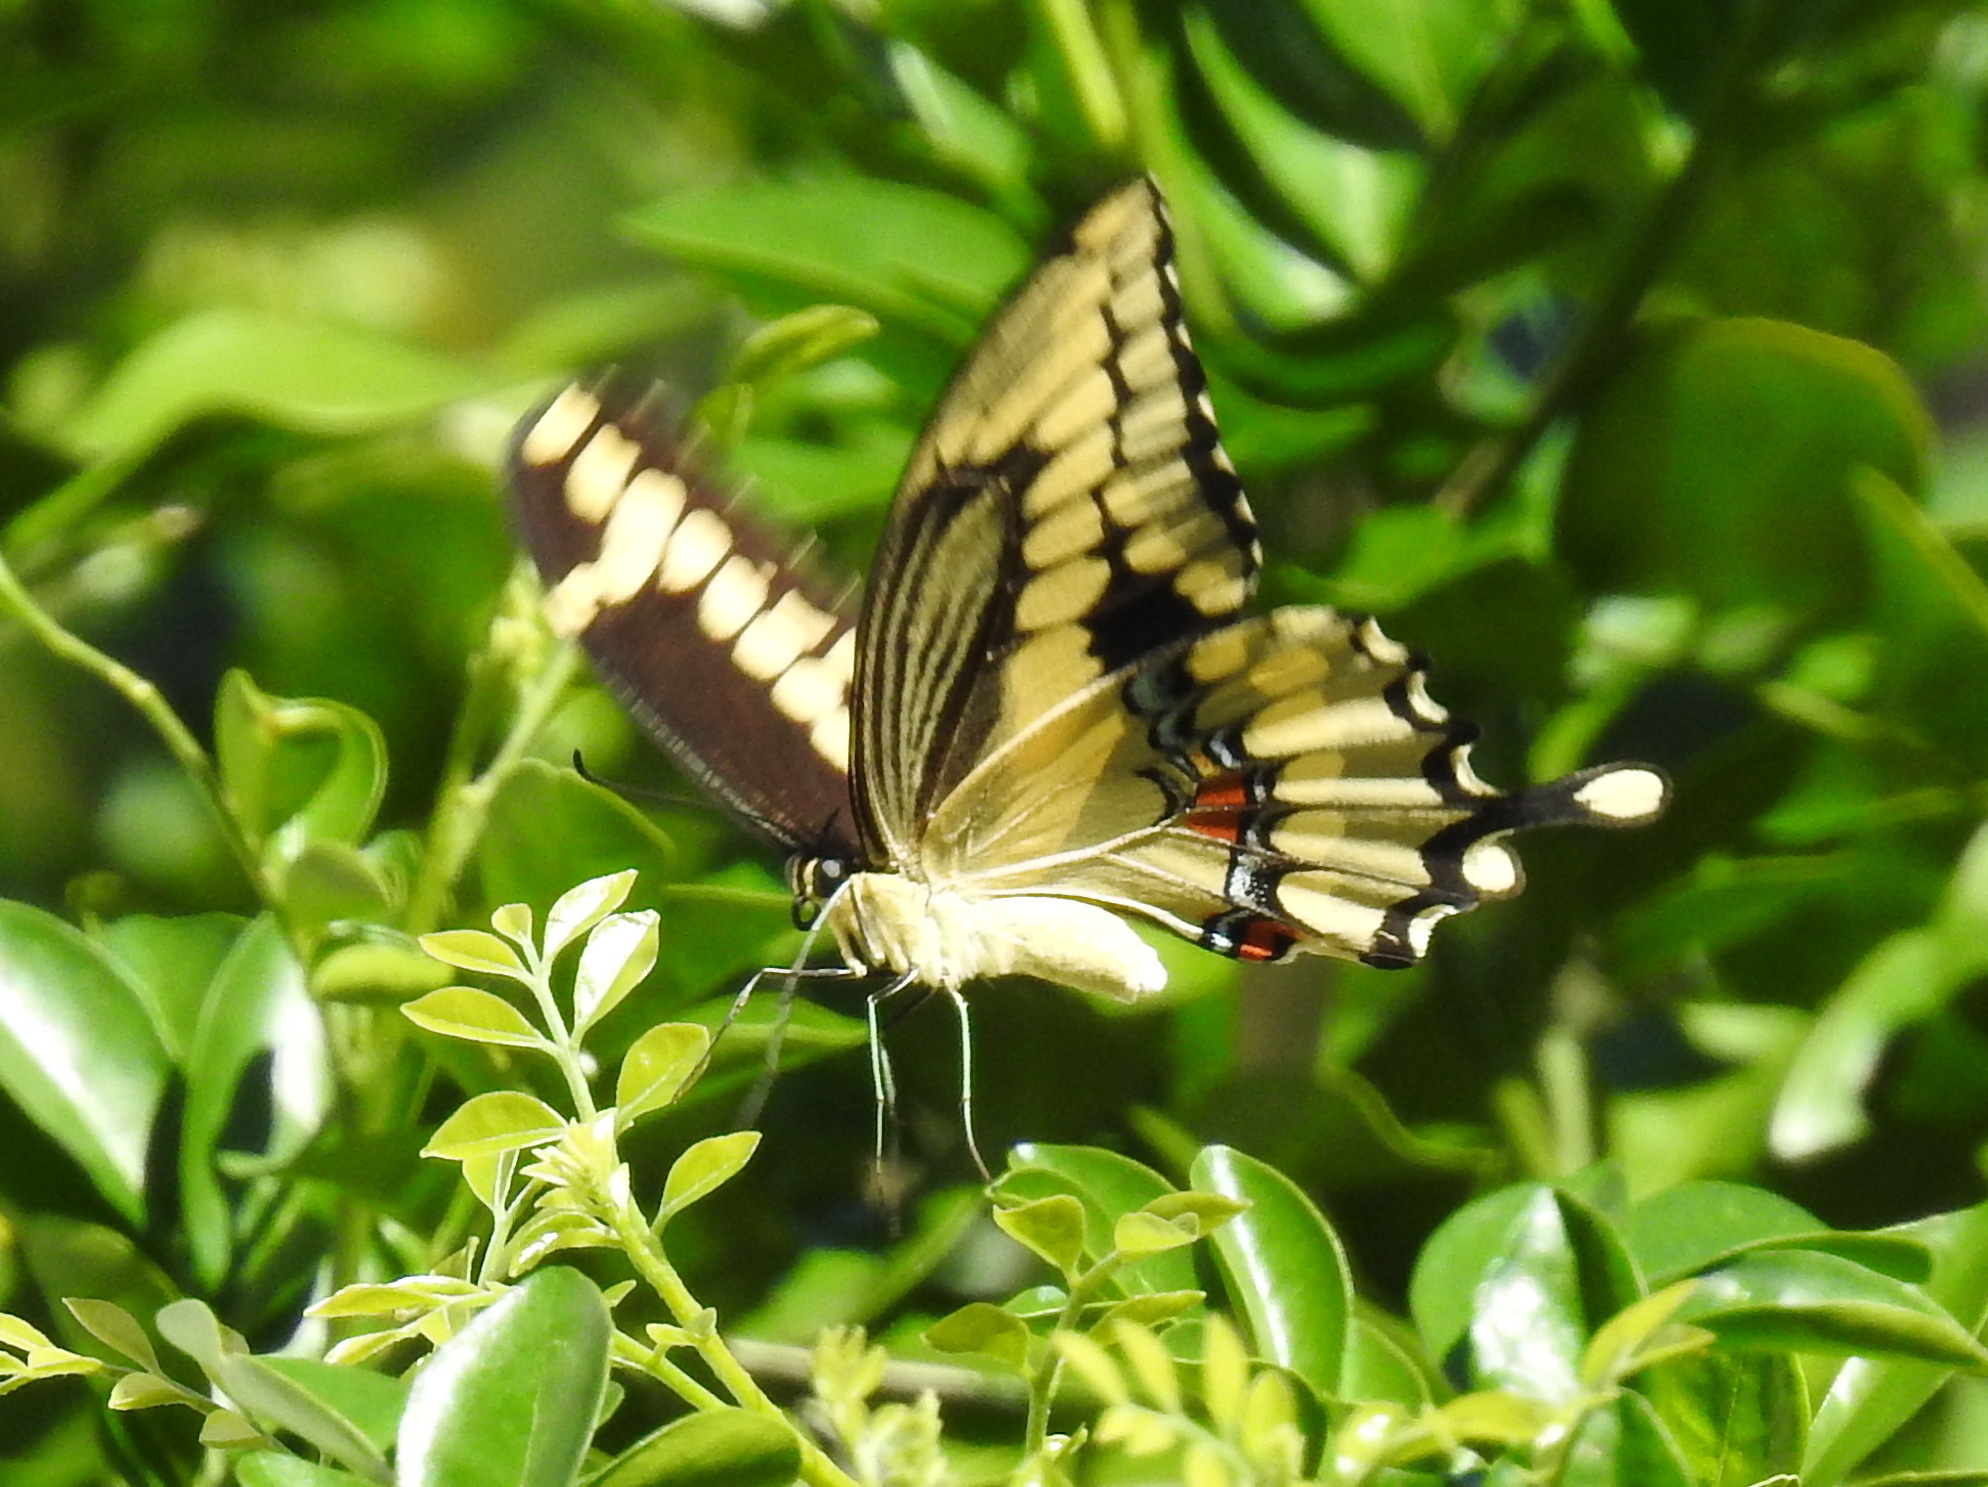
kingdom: Animalia
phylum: Arthropoda
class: Insecta
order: Lepidoptera
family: Papilionidae
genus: Papilio
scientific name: Papilio cresphontes
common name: Giant swallowtail
